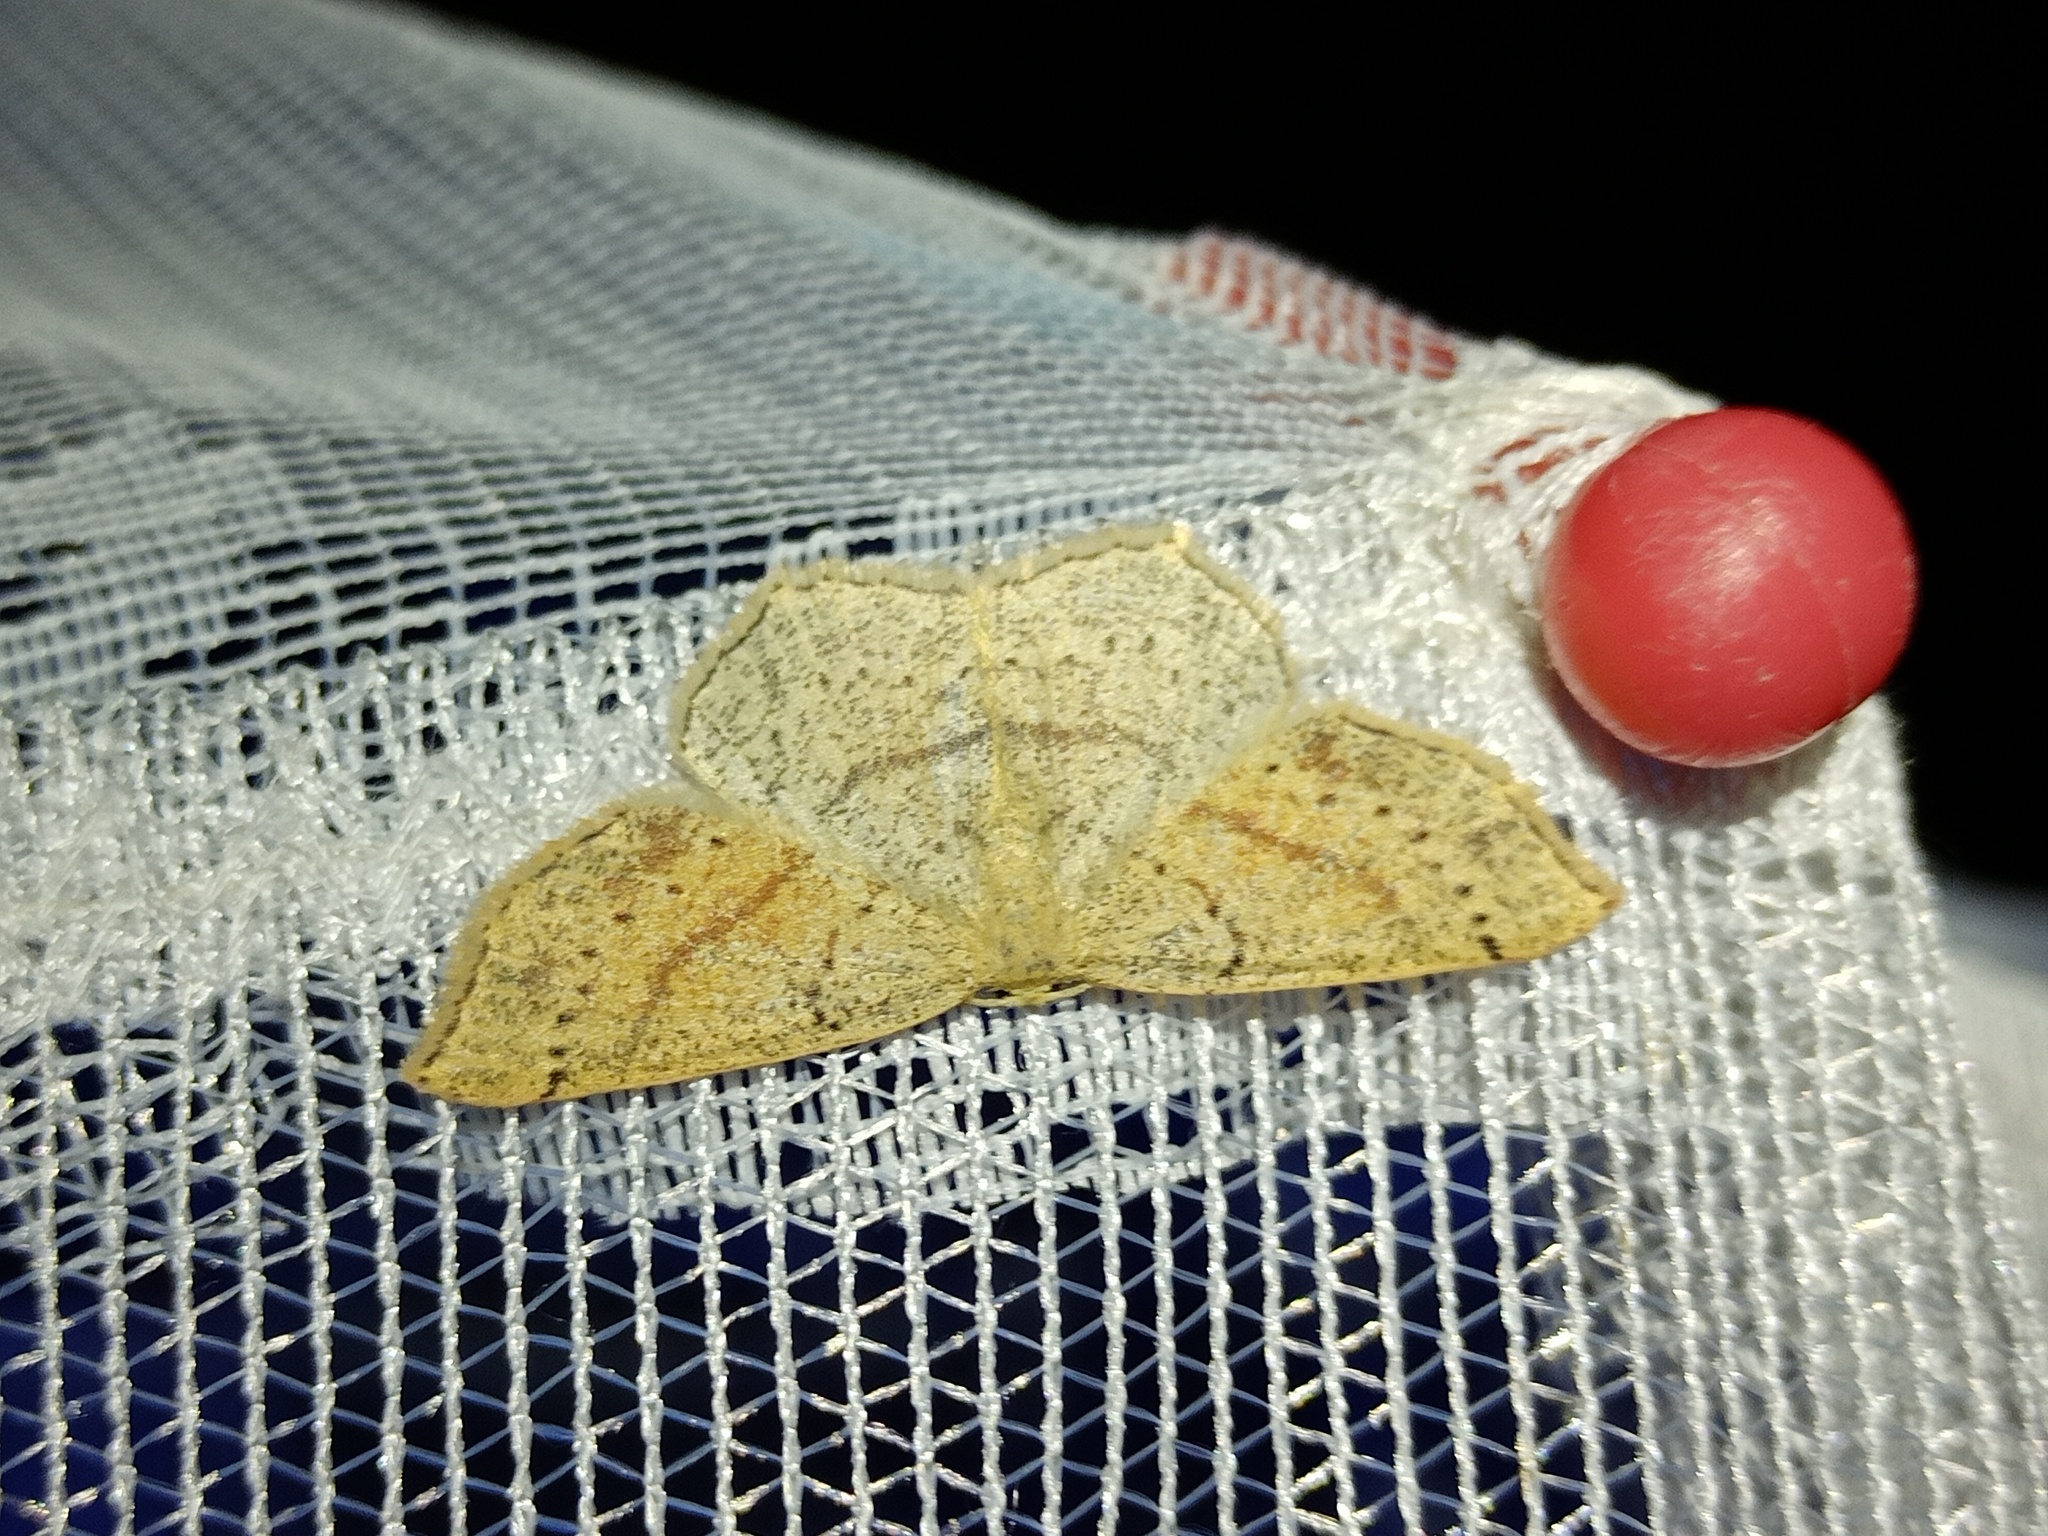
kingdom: Animalia
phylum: Arthropoda
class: Insecta
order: Lepidoptera
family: Geometridae
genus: Cyclophora
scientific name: Cyclophora punctaria
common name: Maiden's blush
